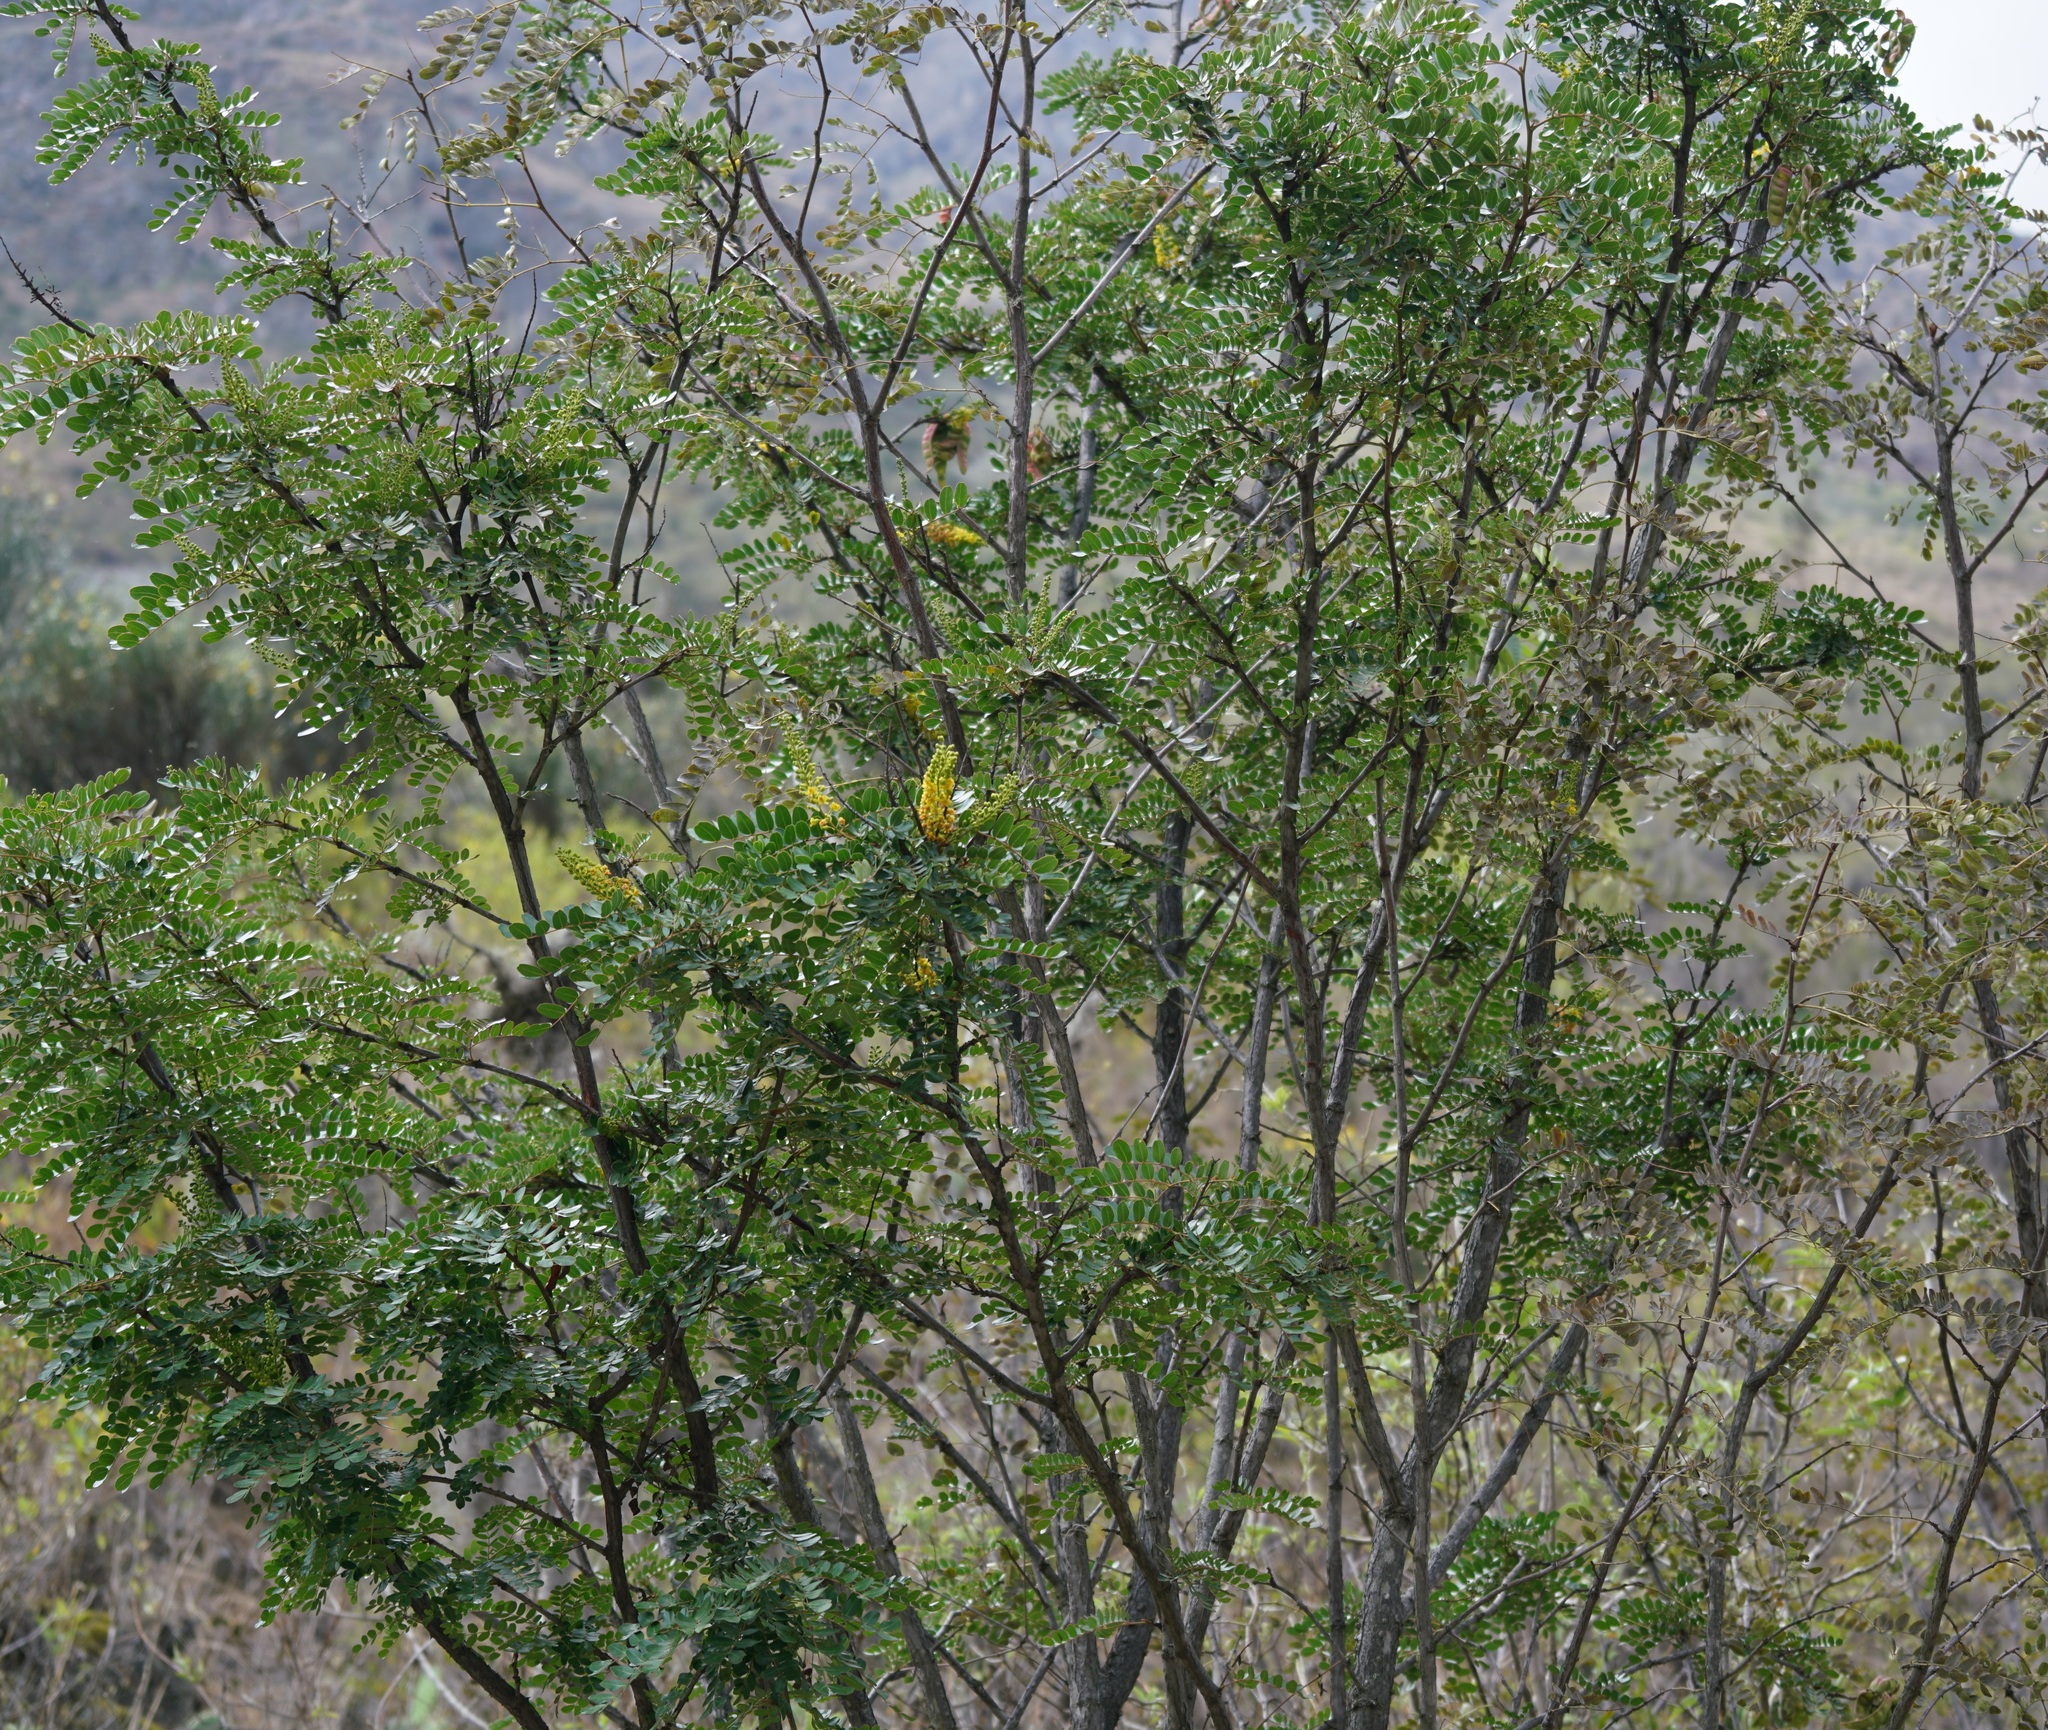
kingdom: Plantae
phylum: Tracheophyta
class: Magnoliopsida
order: Fabales
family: Fabaceae
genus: Tara
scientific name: Tara spinosa
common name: Spiny holdback
